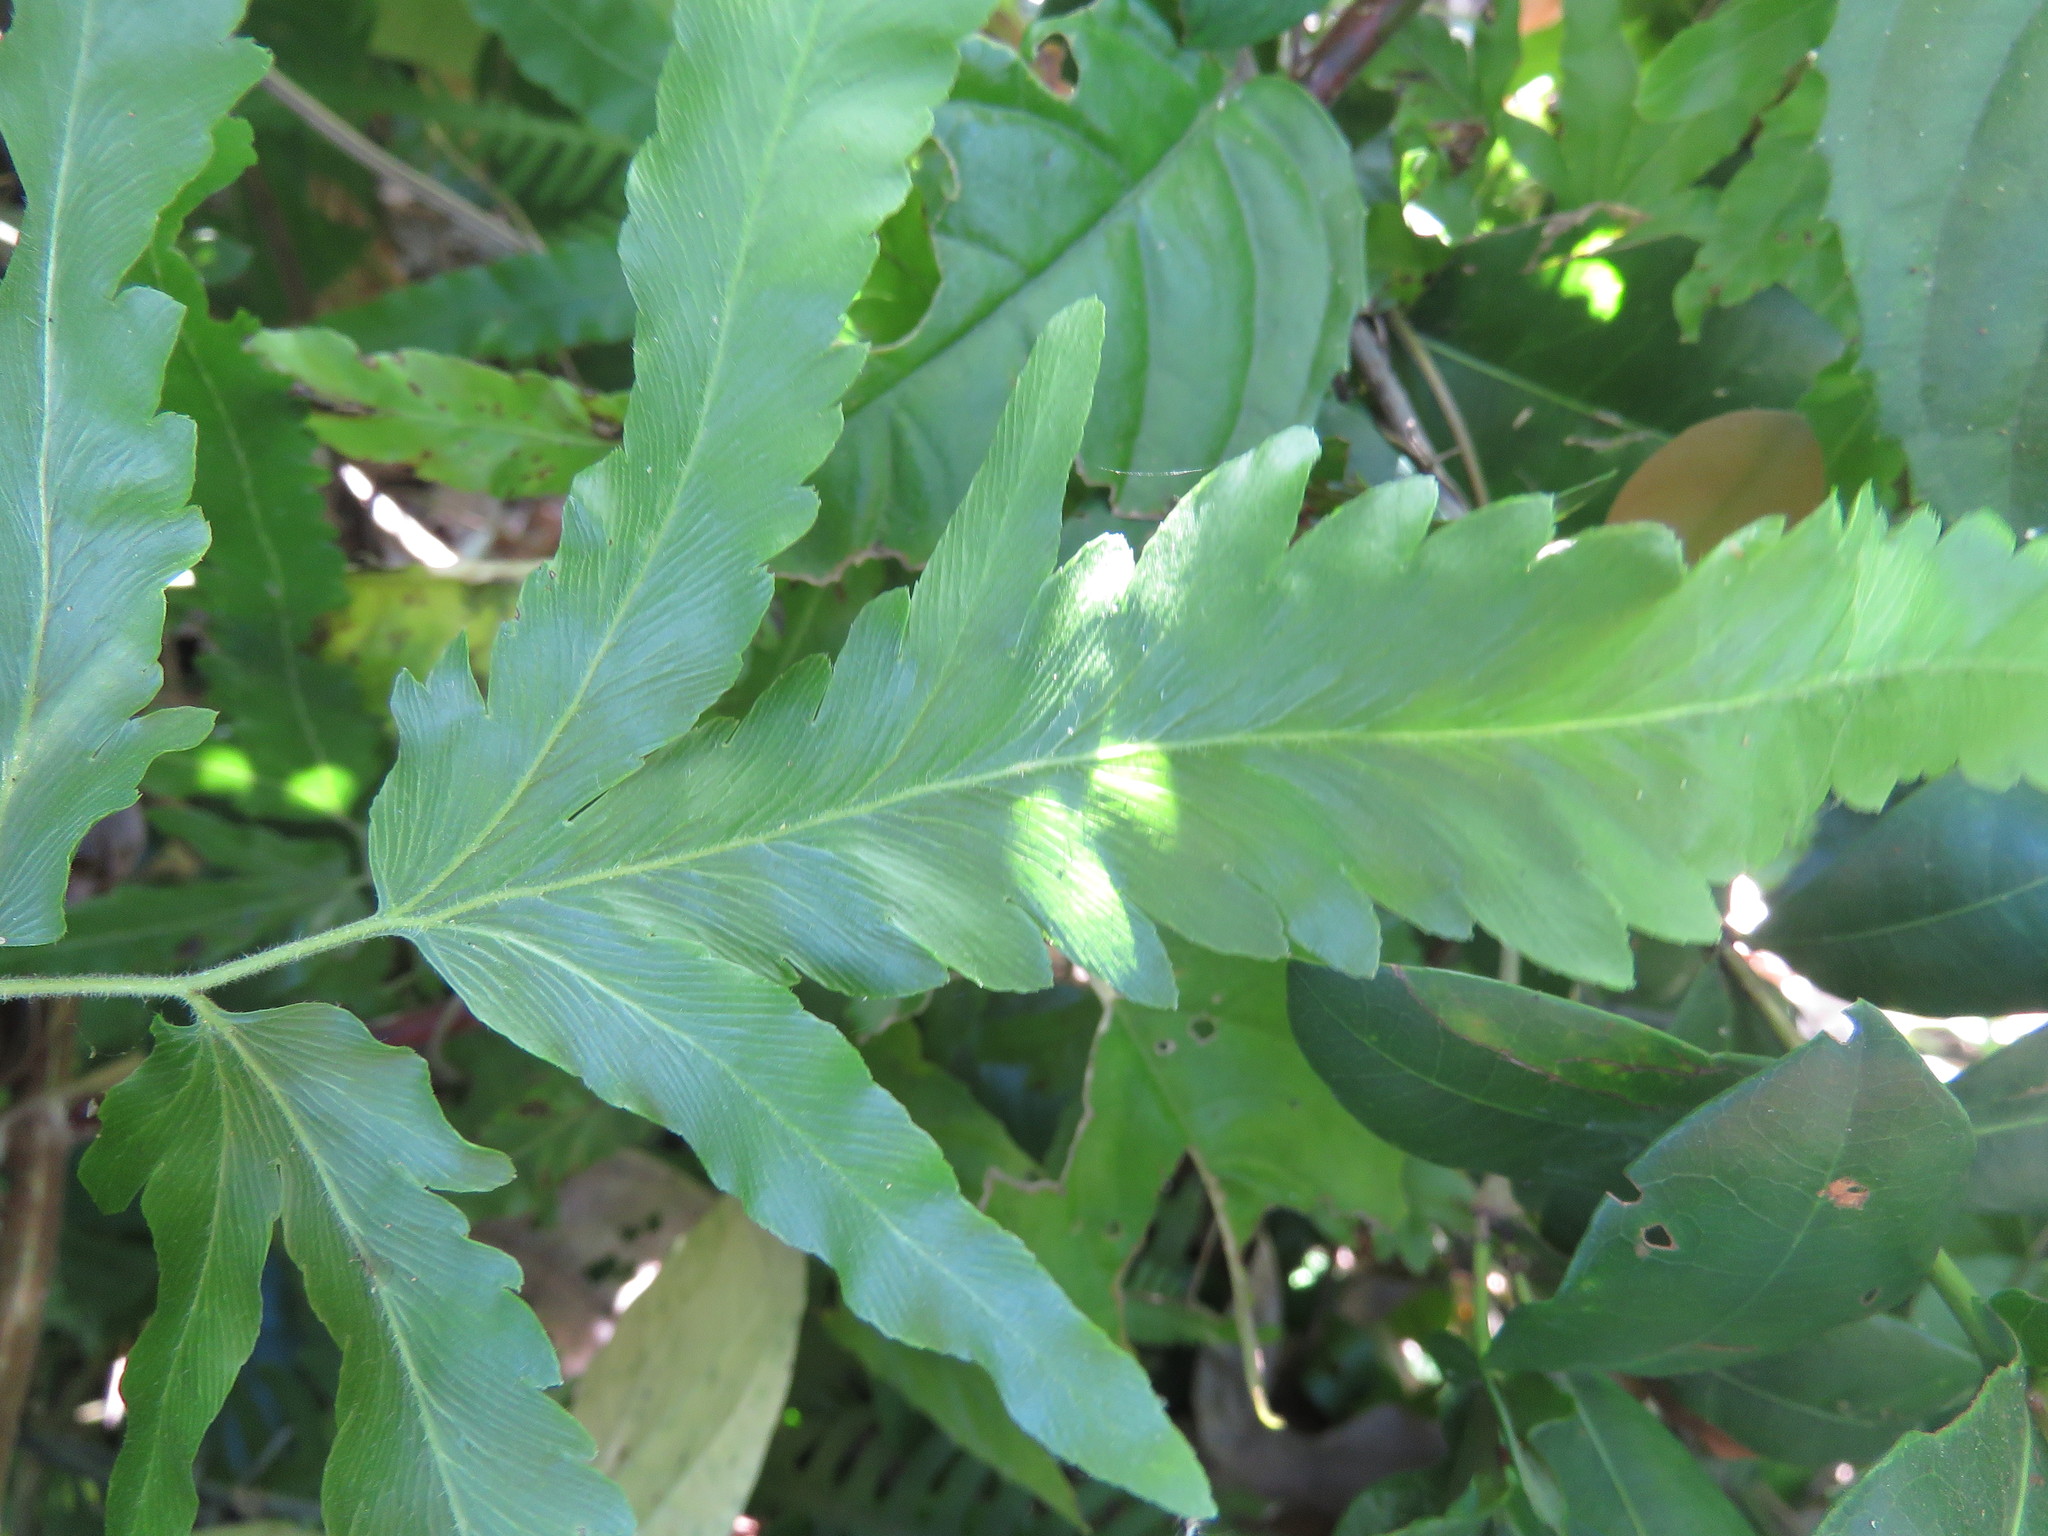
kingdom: Plantae
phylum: Tracheophyta
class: Polypodiopsida
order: Schizaeales
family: Lygodiaceae
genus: Lygodium
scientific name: Lygodium venustum
